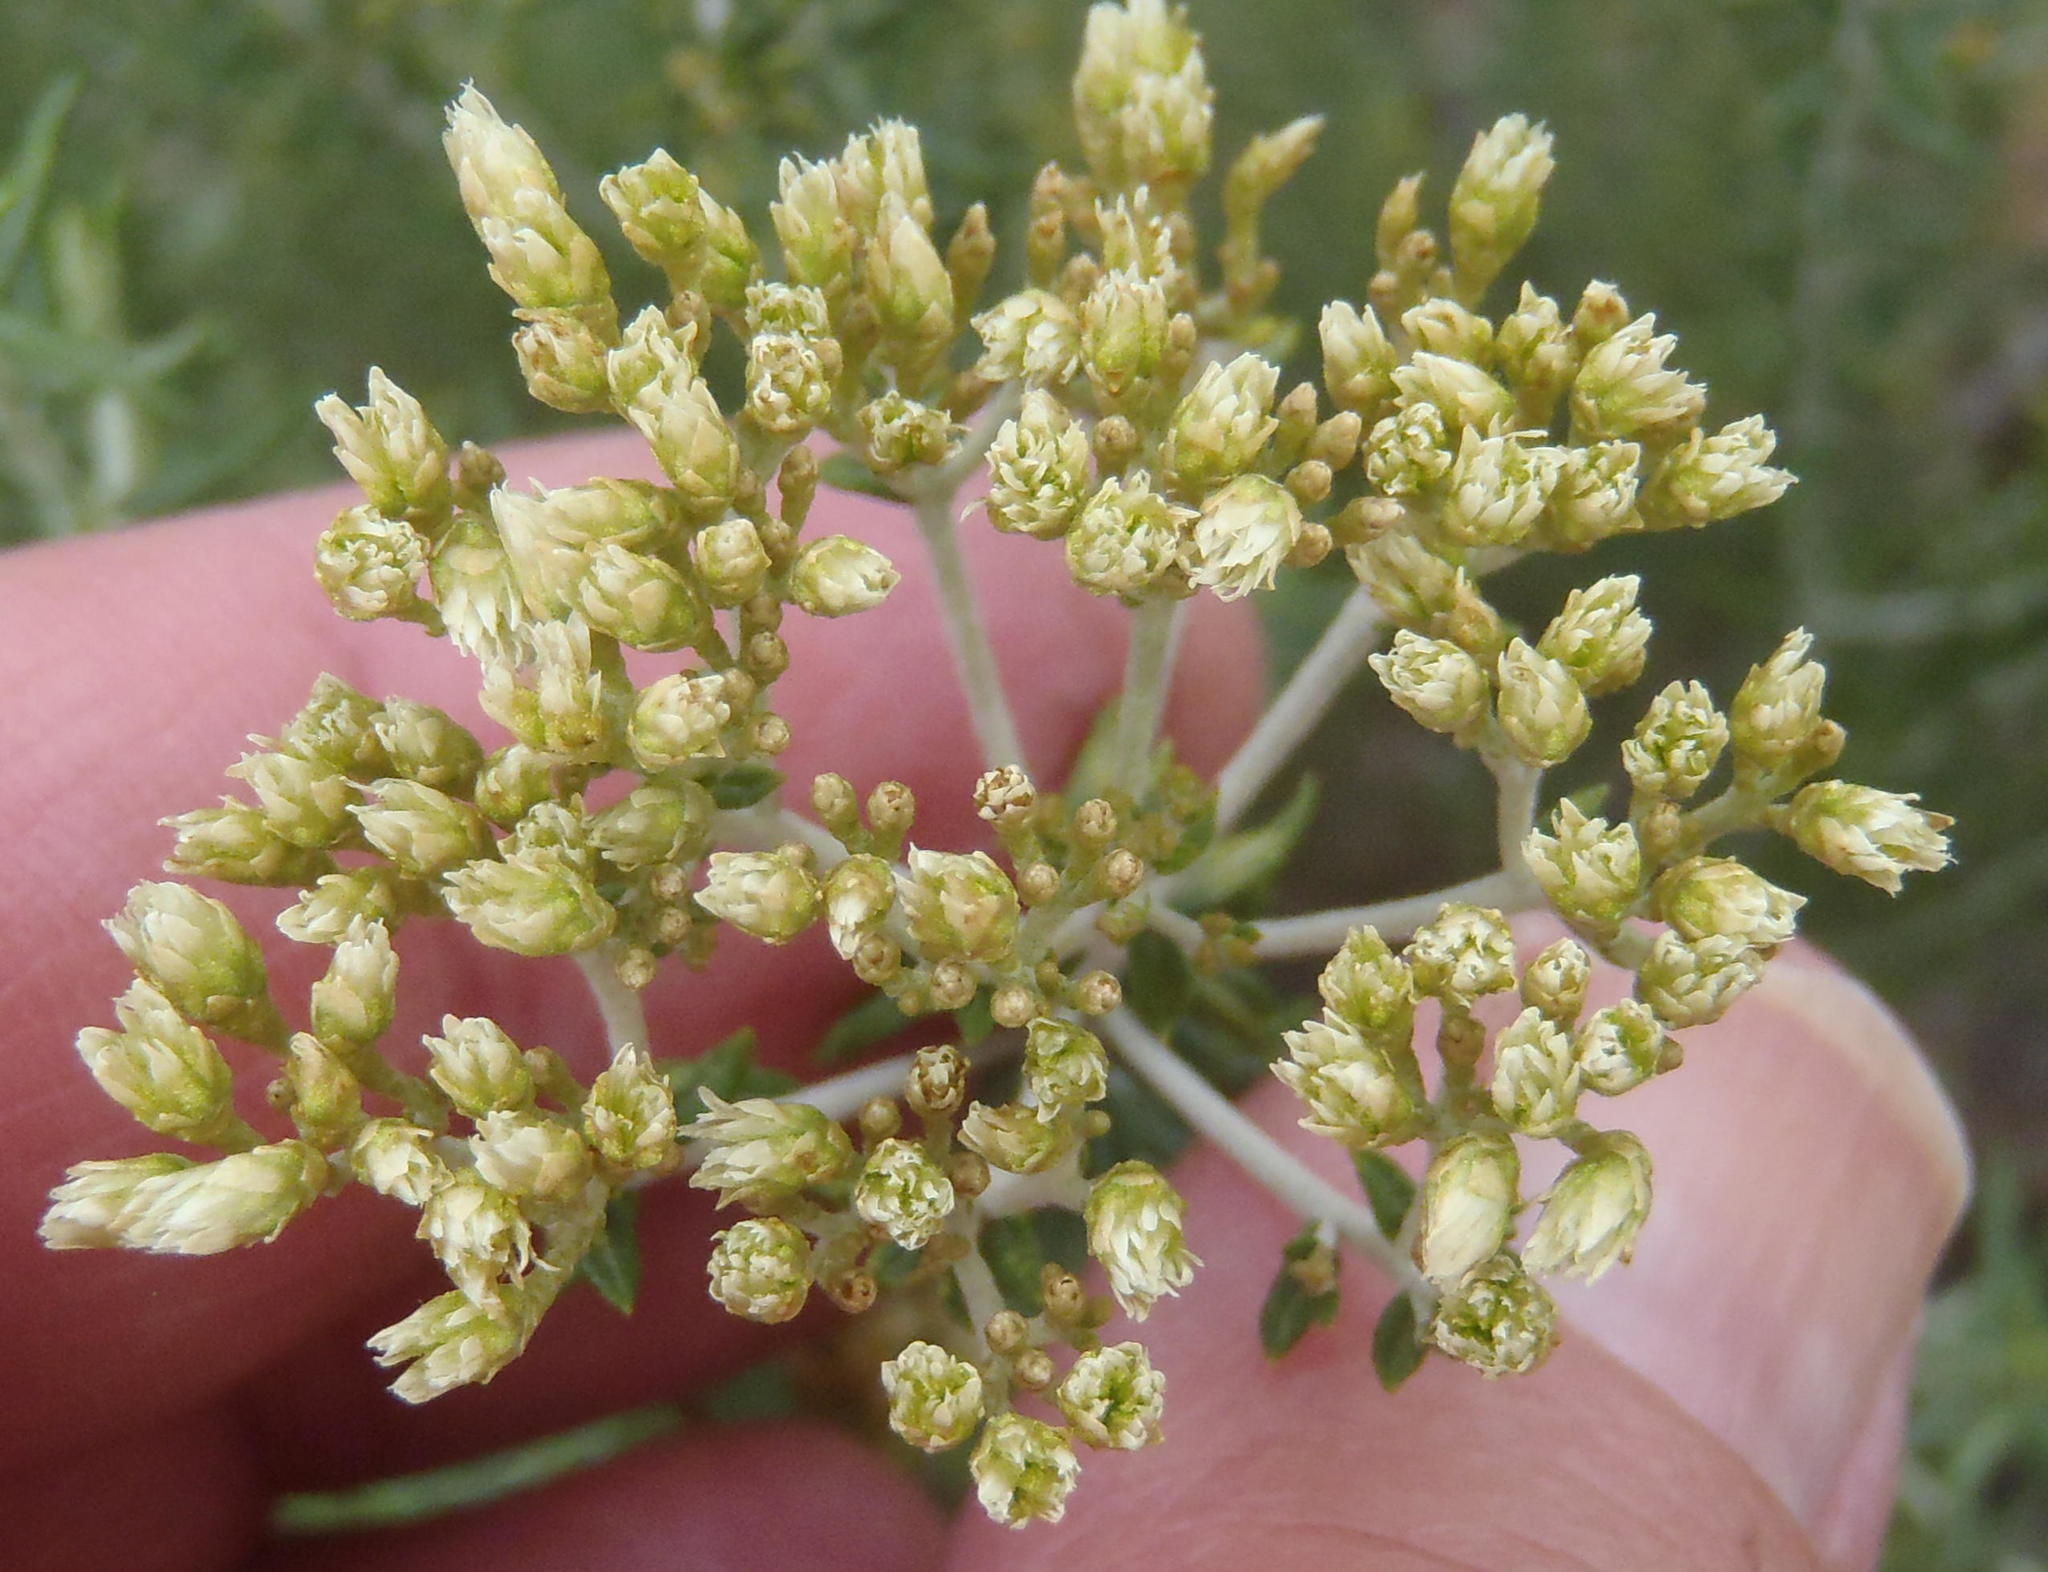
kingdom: Plantae
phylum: Tracheophyta
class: Magnoliopsida
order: Asterales
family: Asteraceae
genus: Helichrysum
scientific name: Helichrysum kraussii
